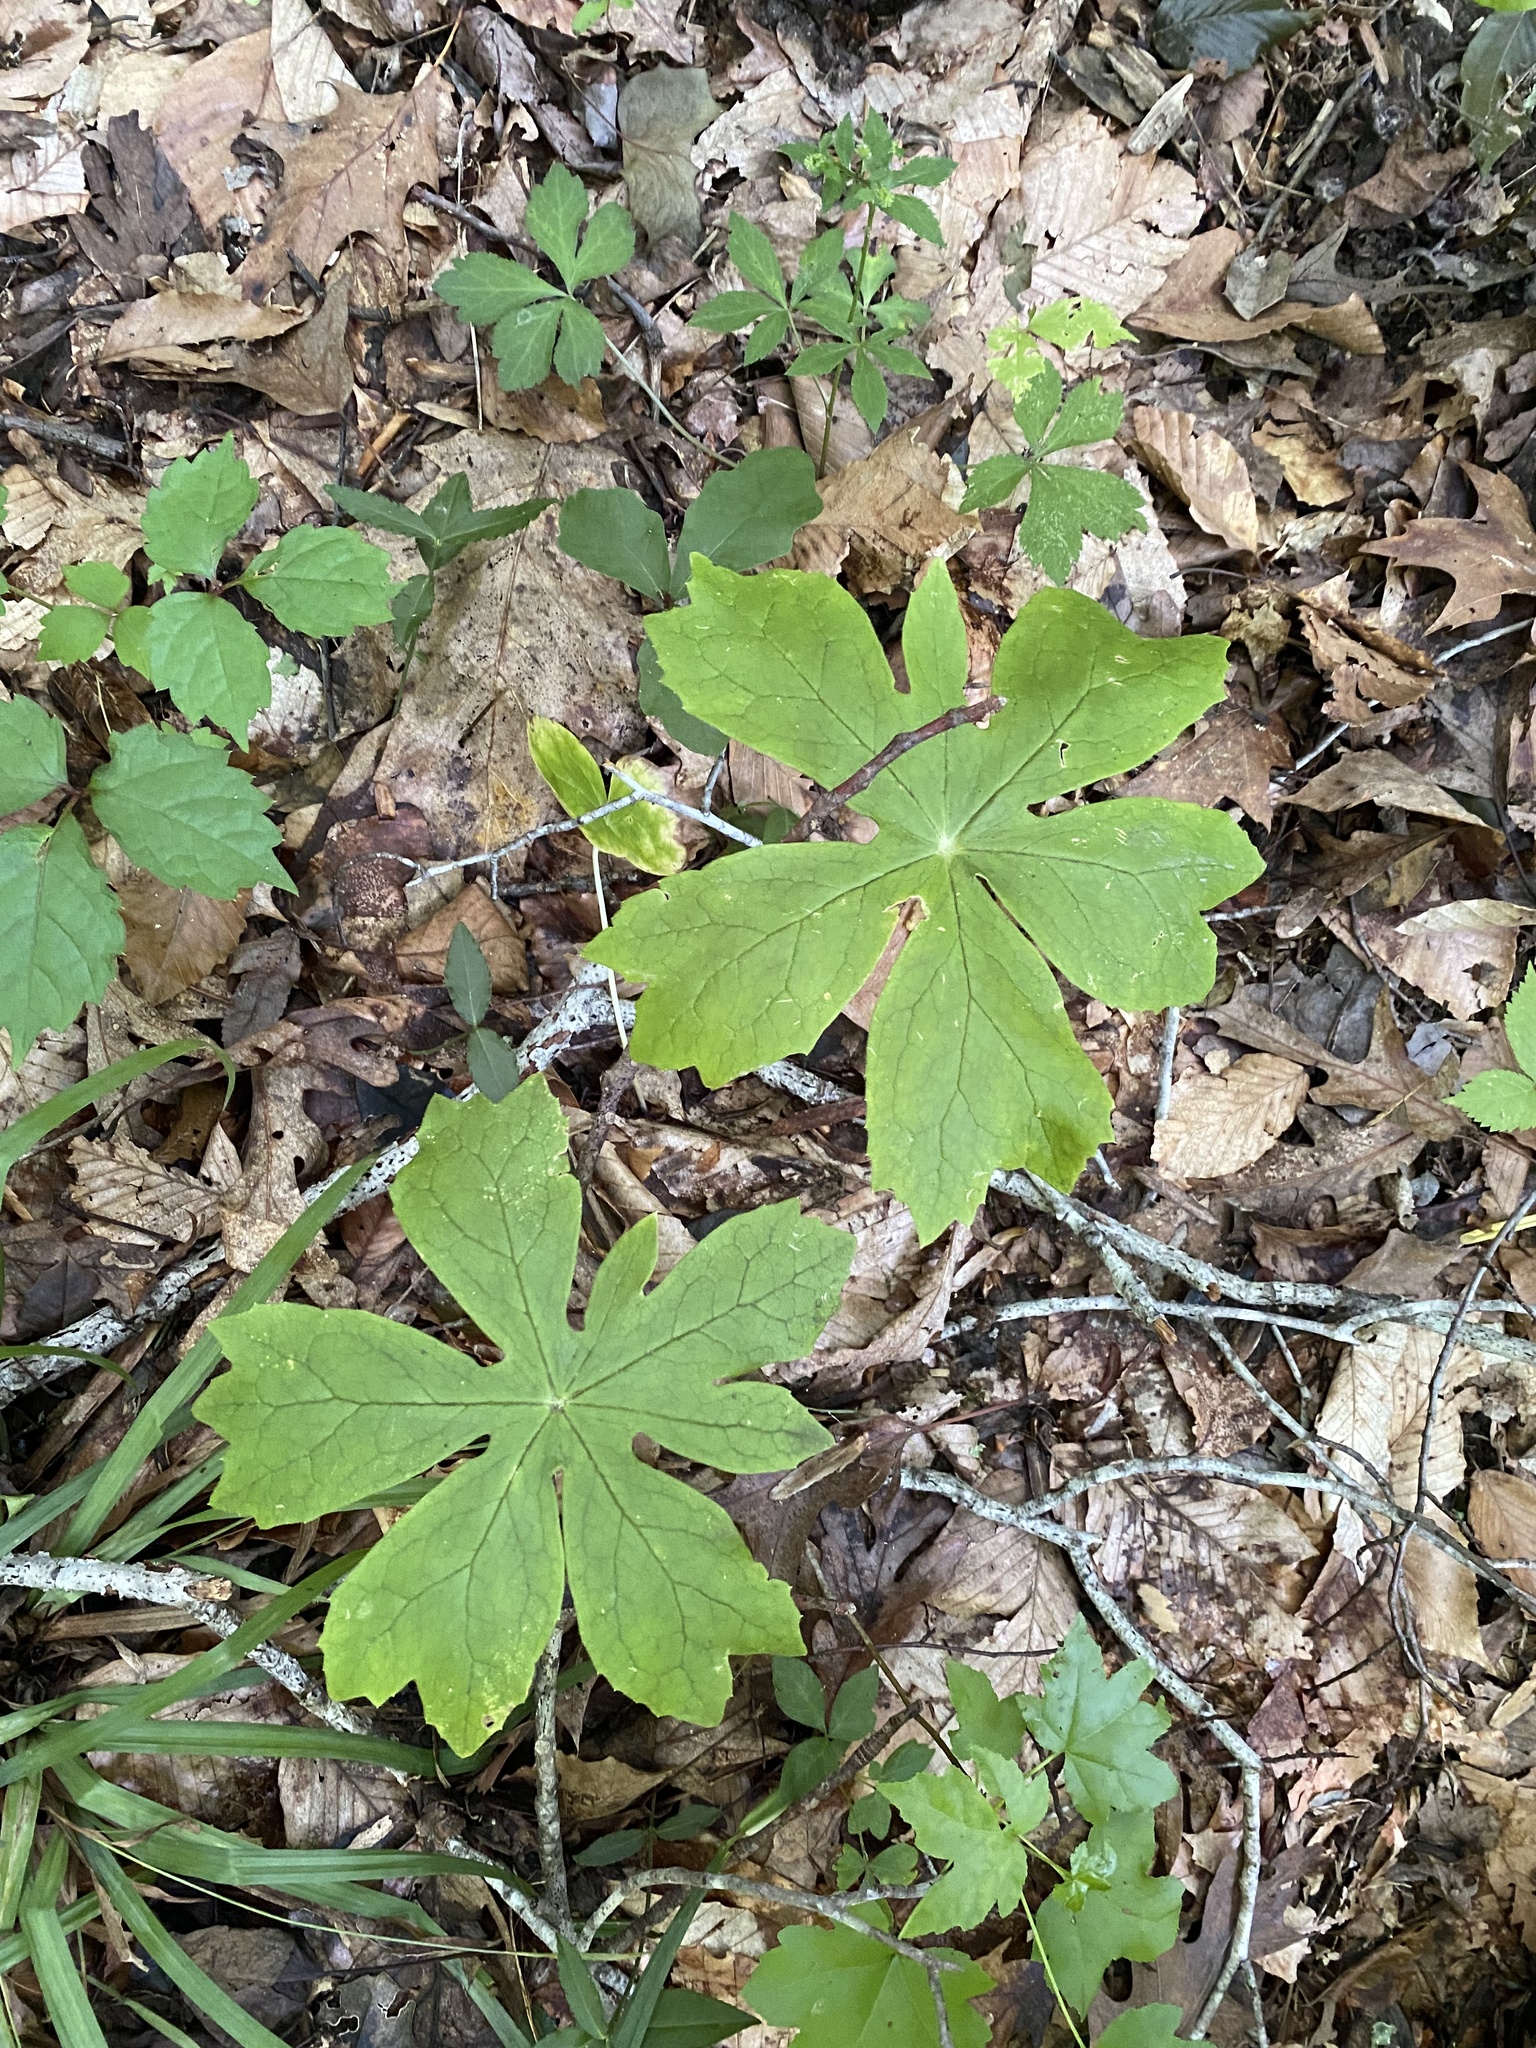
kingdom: Plantae
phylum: Tracheophyta
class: Magnoliopsida
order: Ranunculales
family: Berberidaceae
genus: Podophyllum
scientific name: Podophyllum peltatum
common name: Wild mandrake
